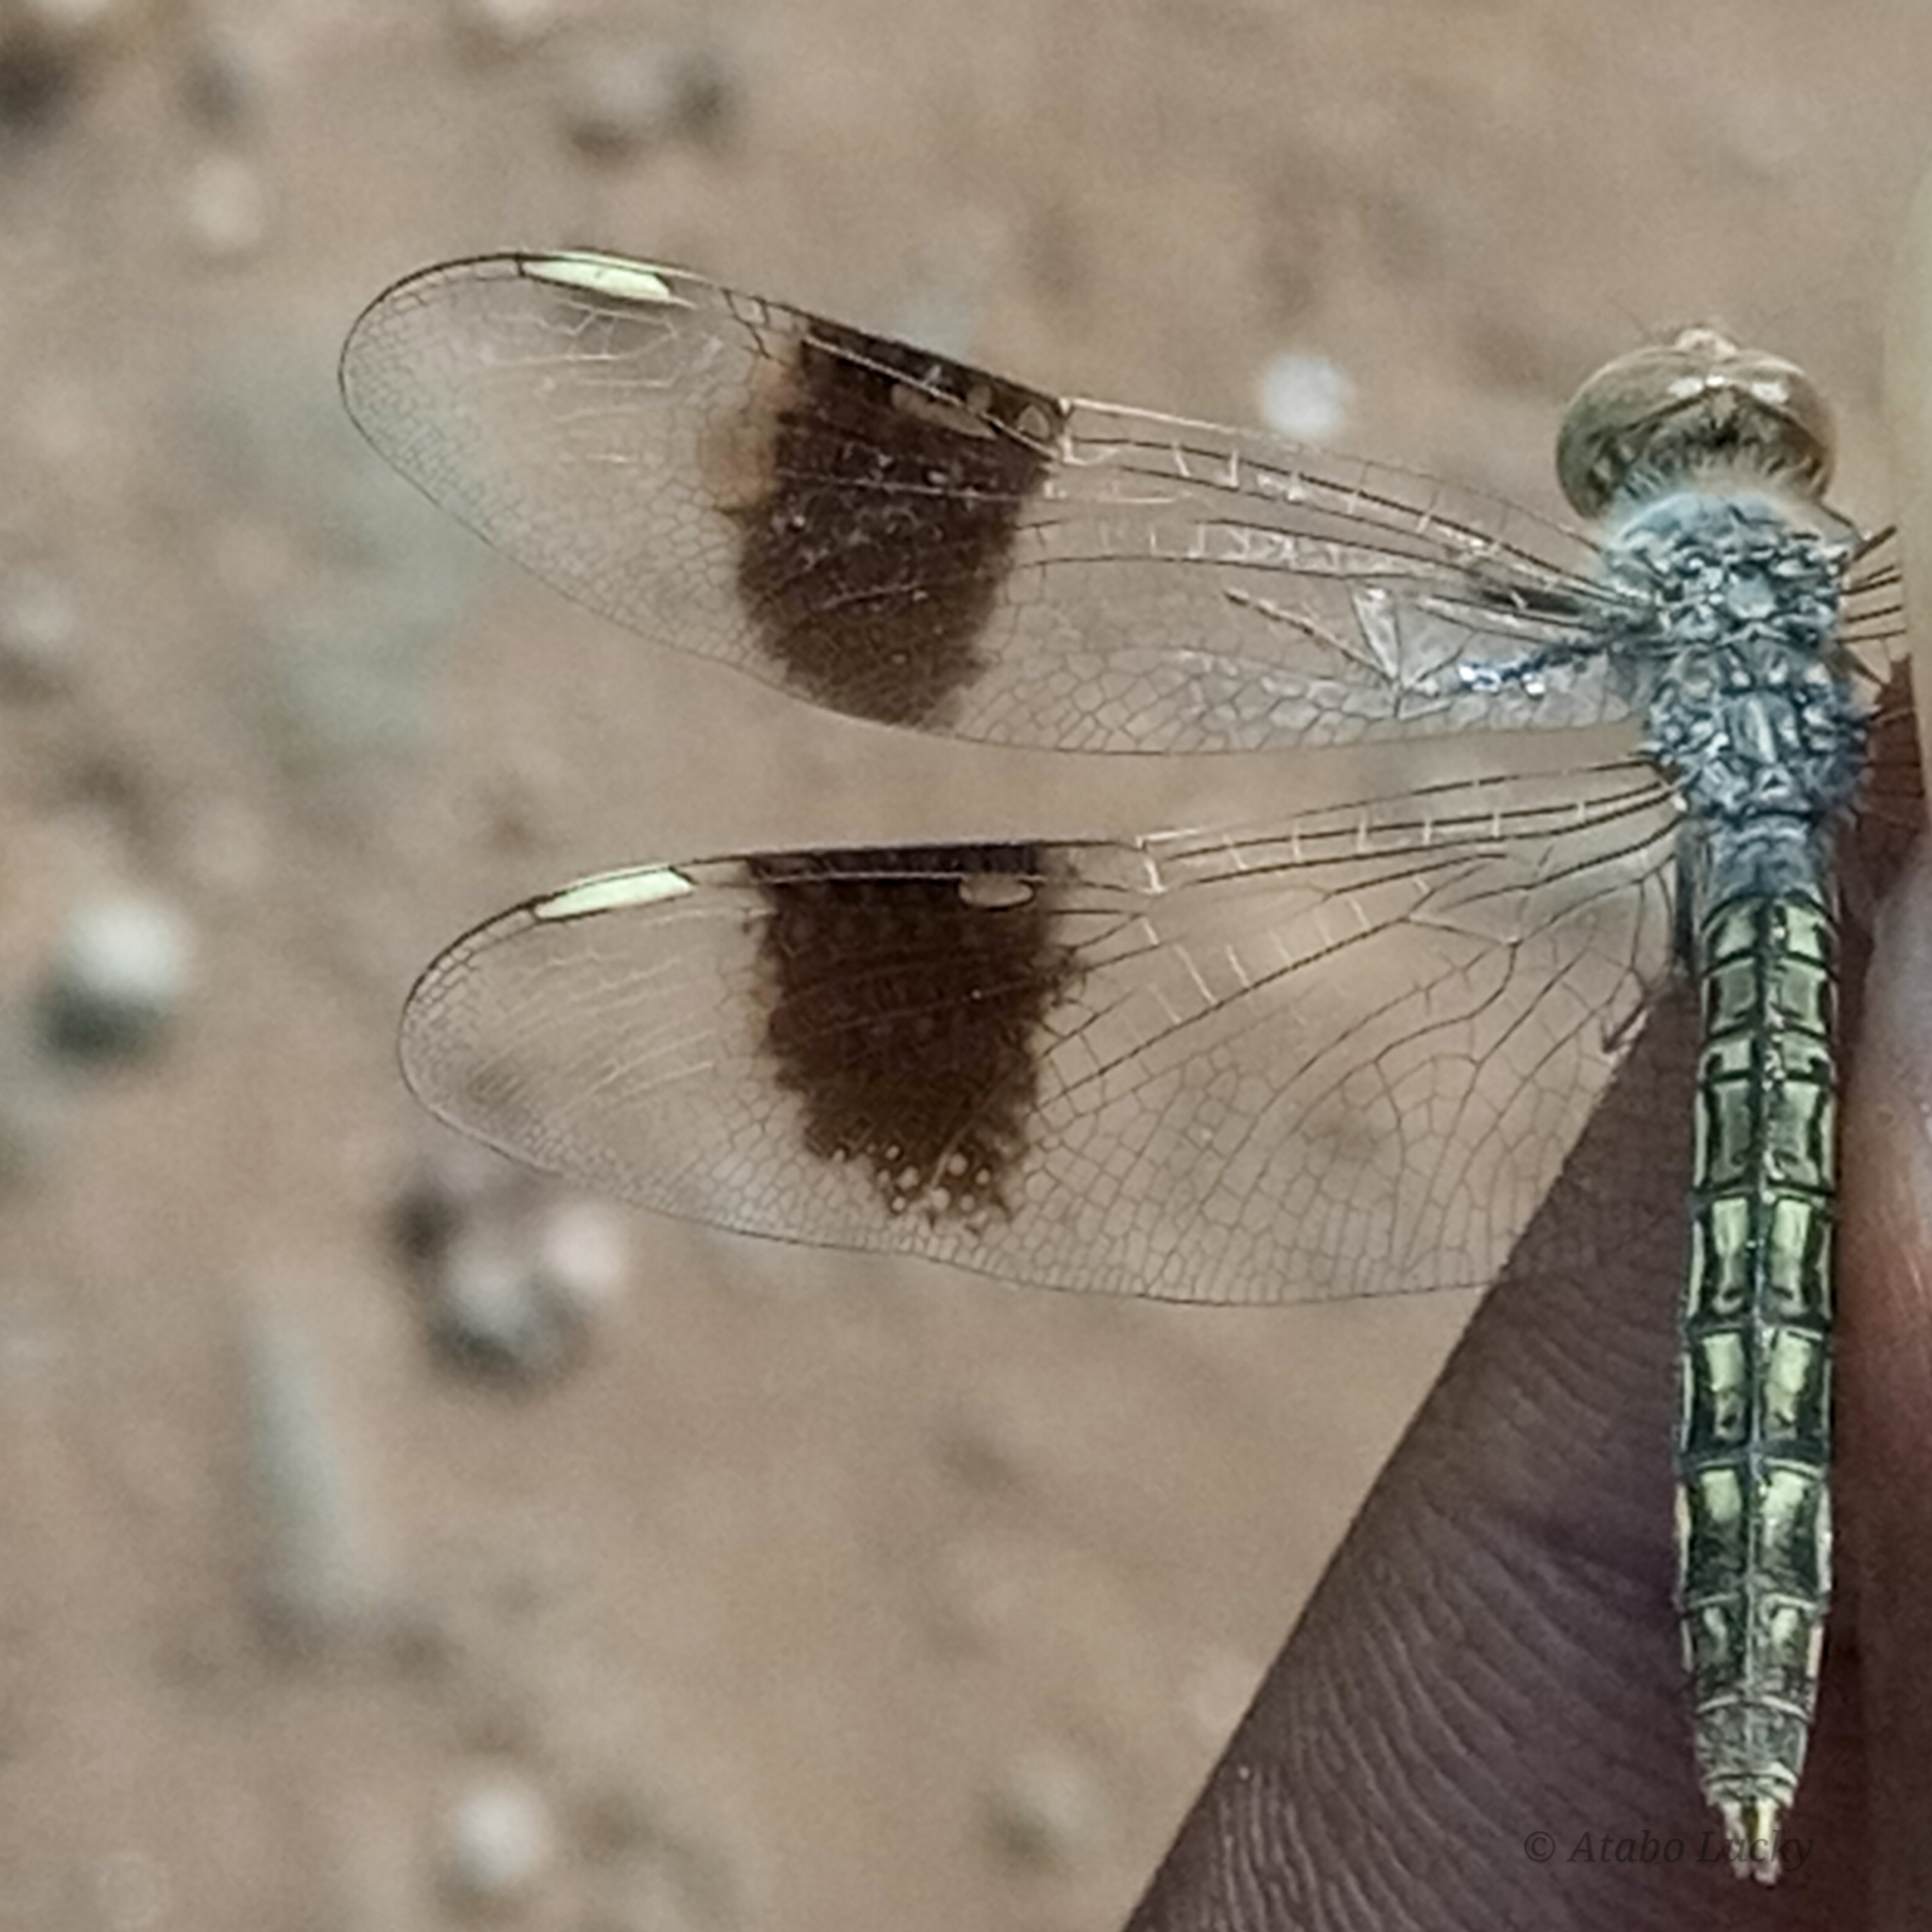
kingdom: Animalia
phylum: Arthropoda
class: Insecta
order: Odonata
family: Libellulidae
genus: Brachythemis
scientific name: Brachythemis impartita
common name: Banded groundling
